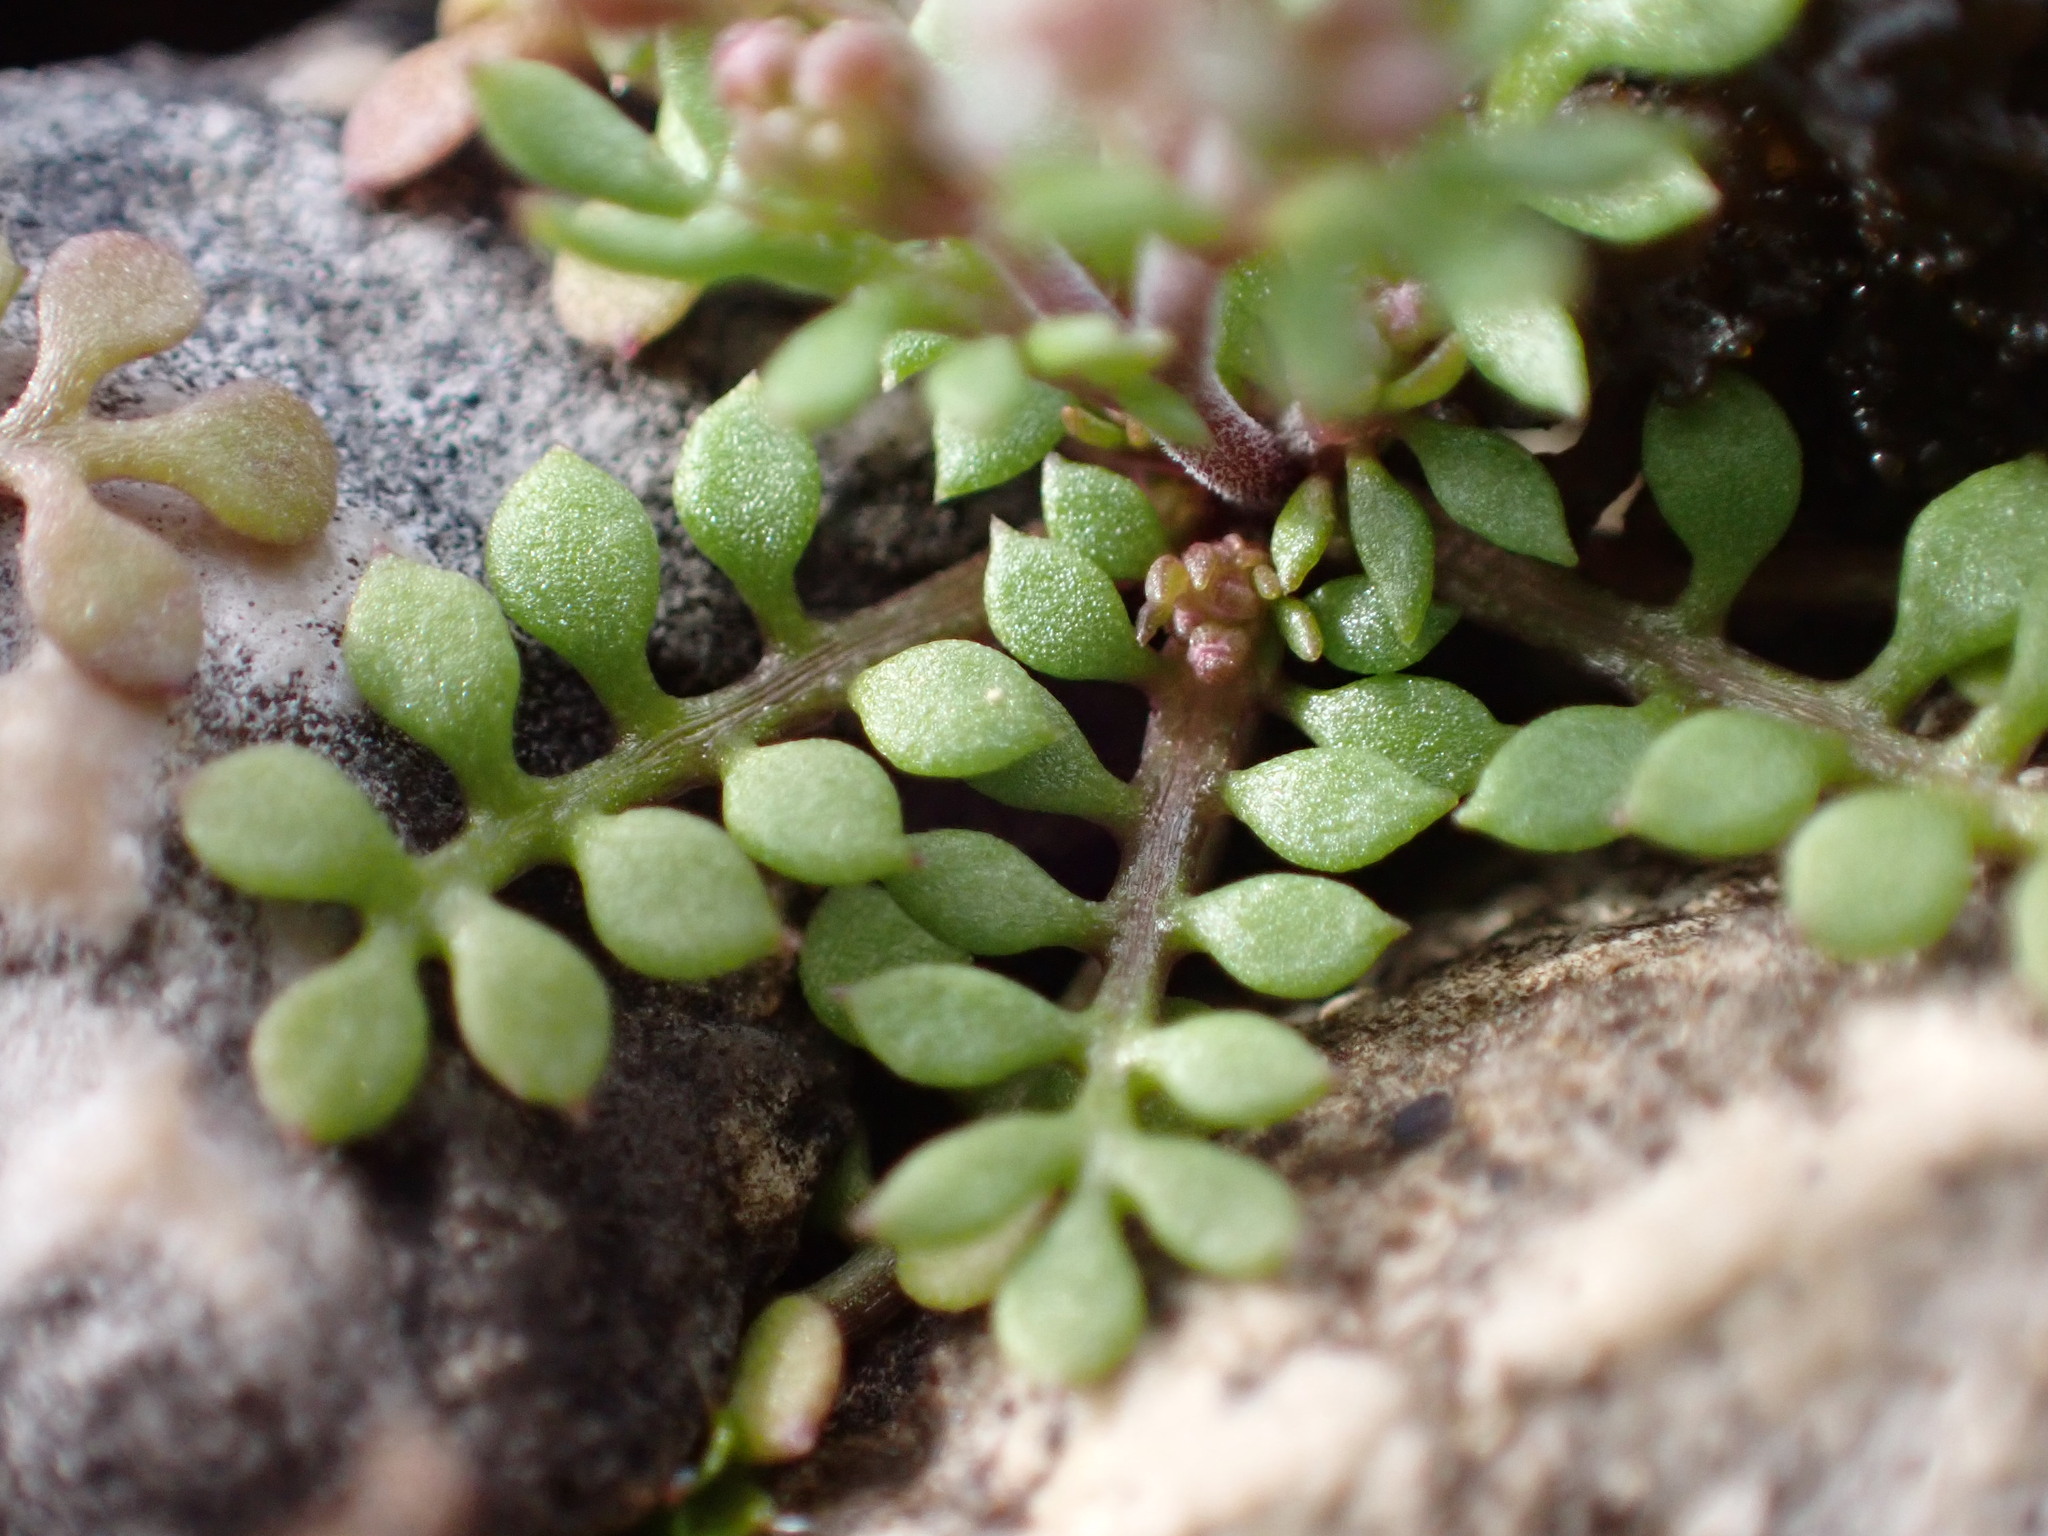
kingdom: Plantae
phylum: Tracheophyta
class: Magnoliopsida
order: Brassicales
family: Brassicaceae
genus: Hornungia
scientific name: Hornungia petraea
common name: Hutchinsia
